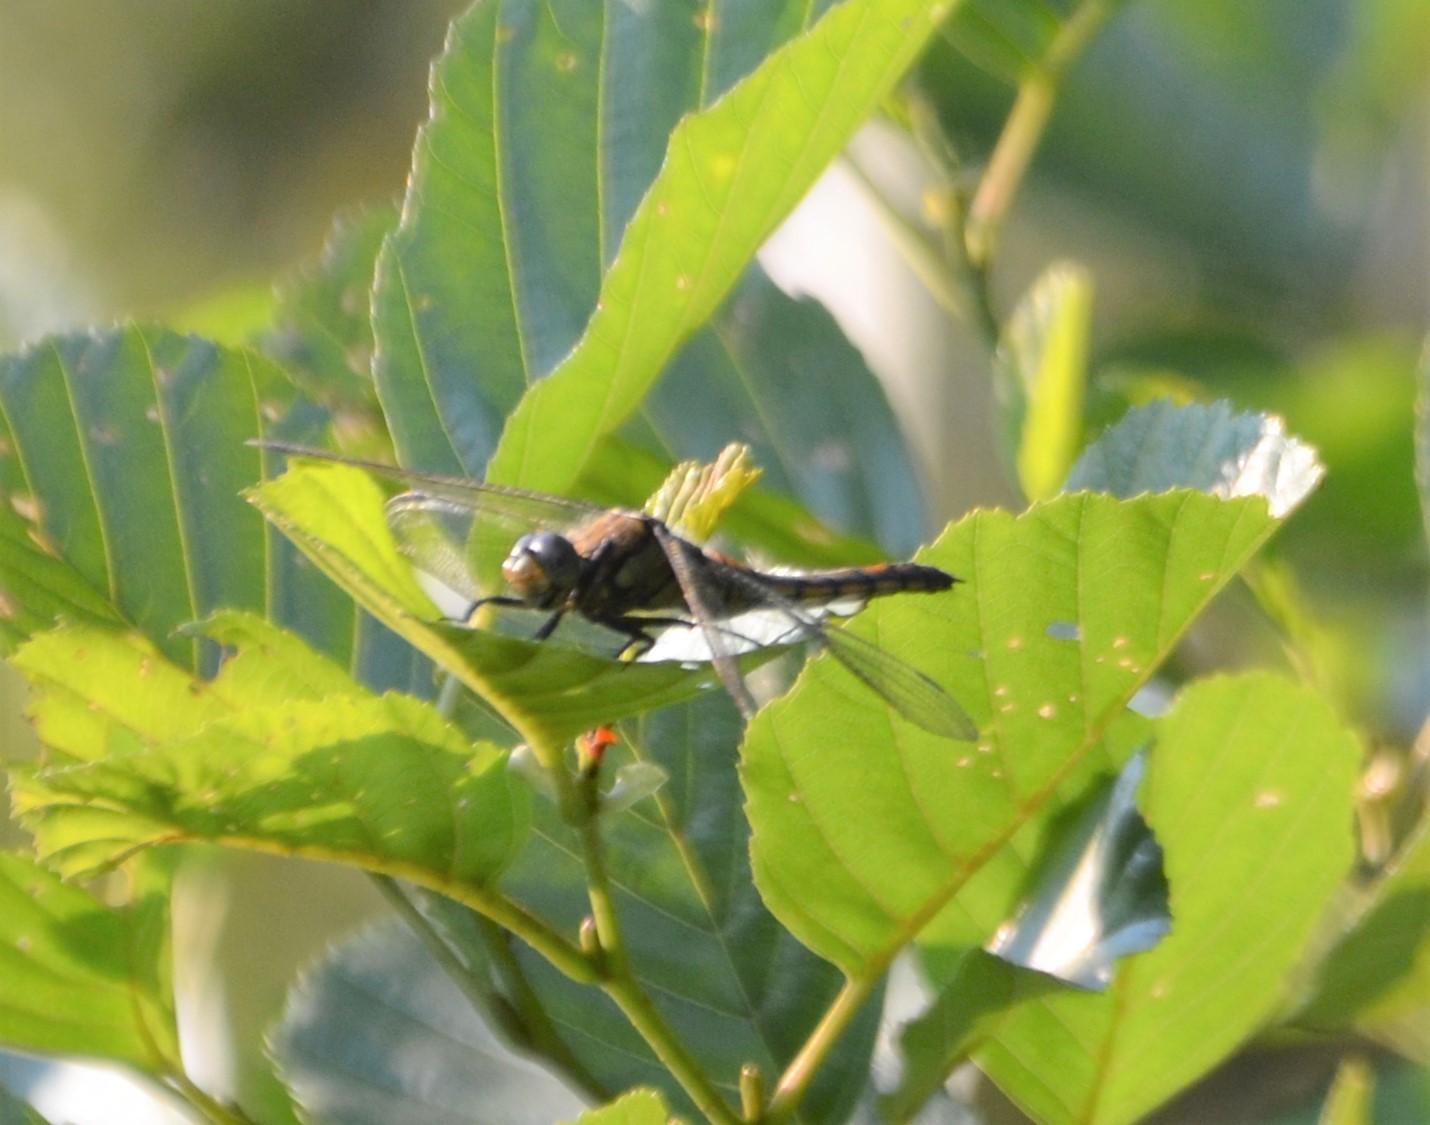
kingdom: Animalia
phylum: Arthropoda
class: Insecta
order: Odonata
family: Libellulidae
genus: Orthetrum
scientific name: Orthetrum cancellatum
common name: Black-tailed skimmer
